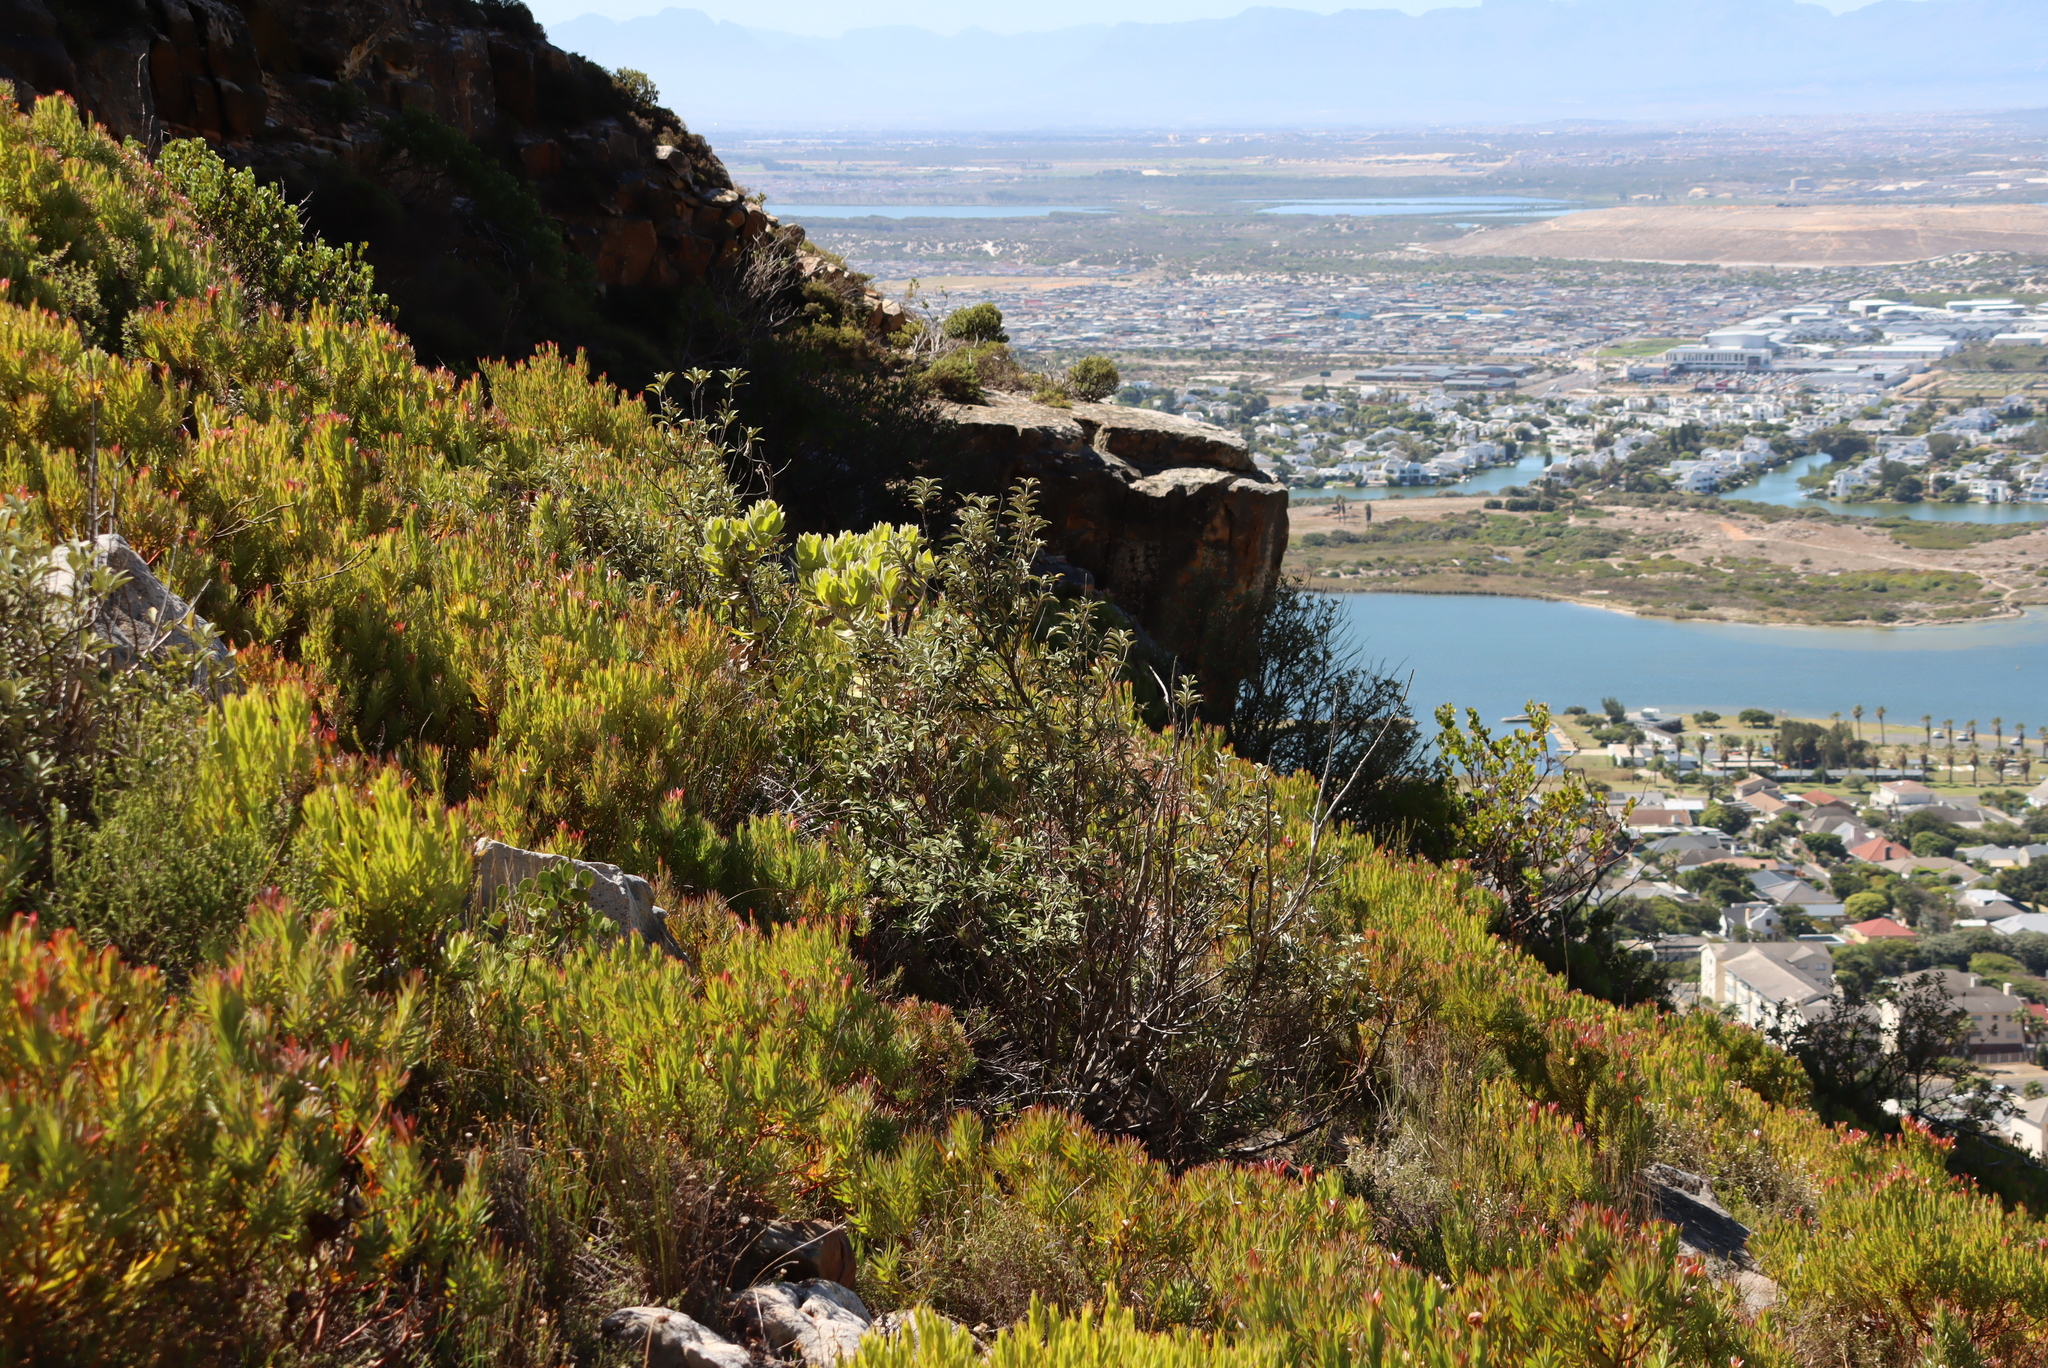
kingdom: Plantae
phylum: Tracheophyta
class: Magnoliopsida
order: Asterales
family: Asteraceae
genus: Tarchonanthus
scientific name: Tarchonanthus littoralis
